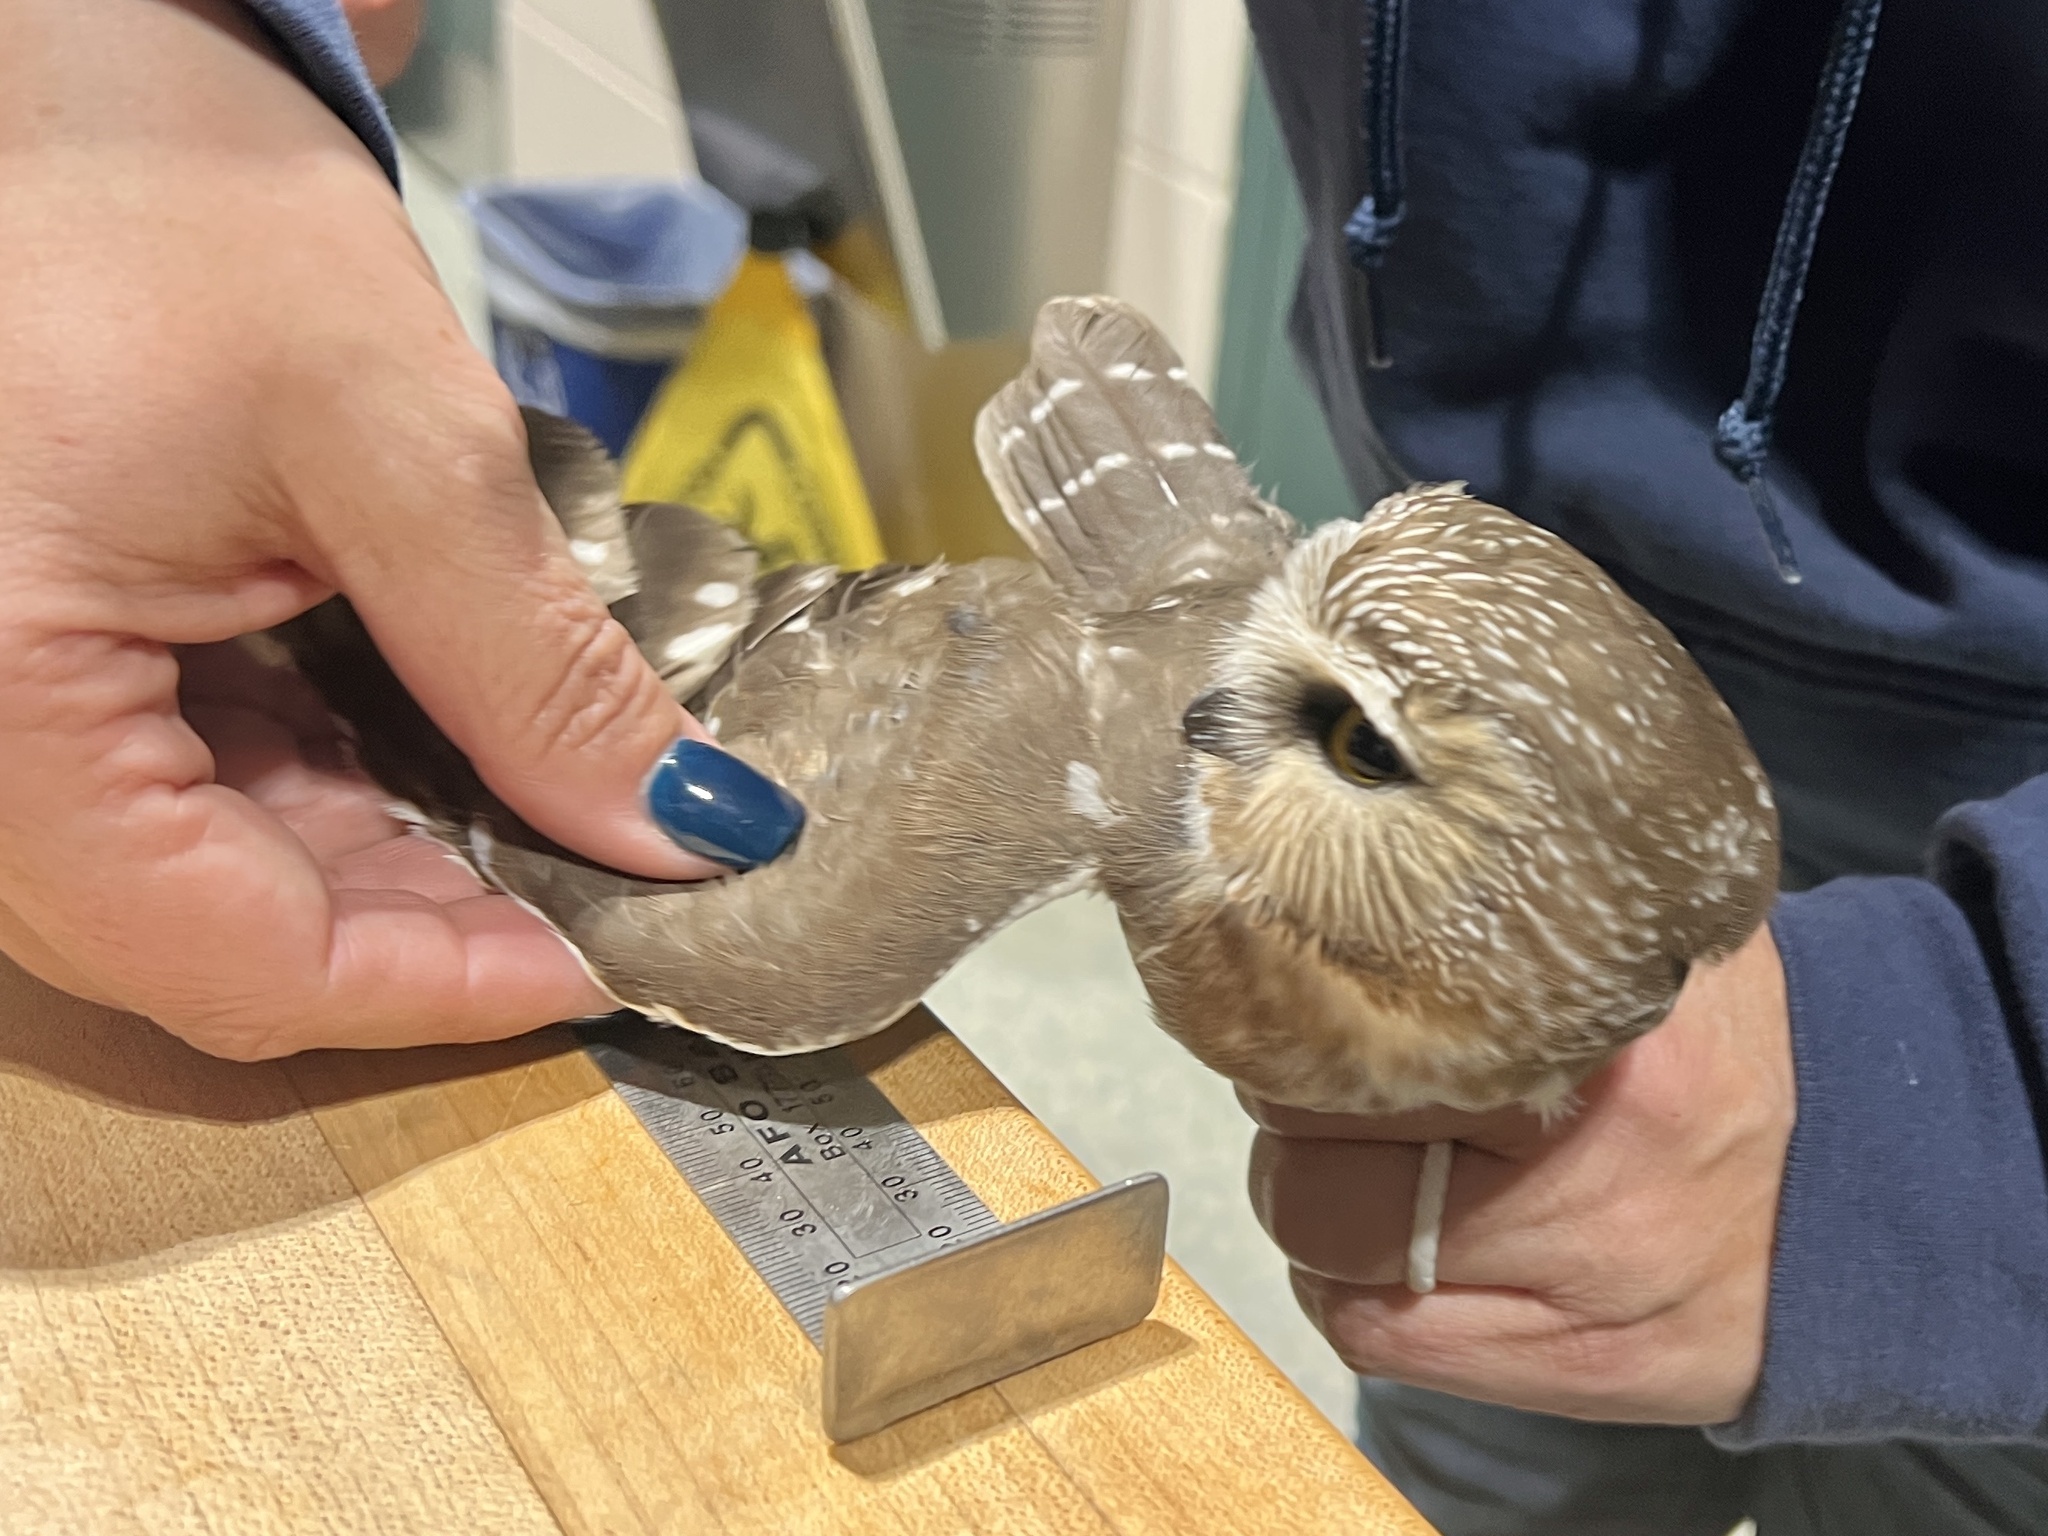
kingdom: Animalia
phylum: Chordata
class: Aves
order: Strigiformes
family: Strigidae
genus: Aegolius
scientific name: Aegolius acadicus
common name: Northern saw-whet owl
